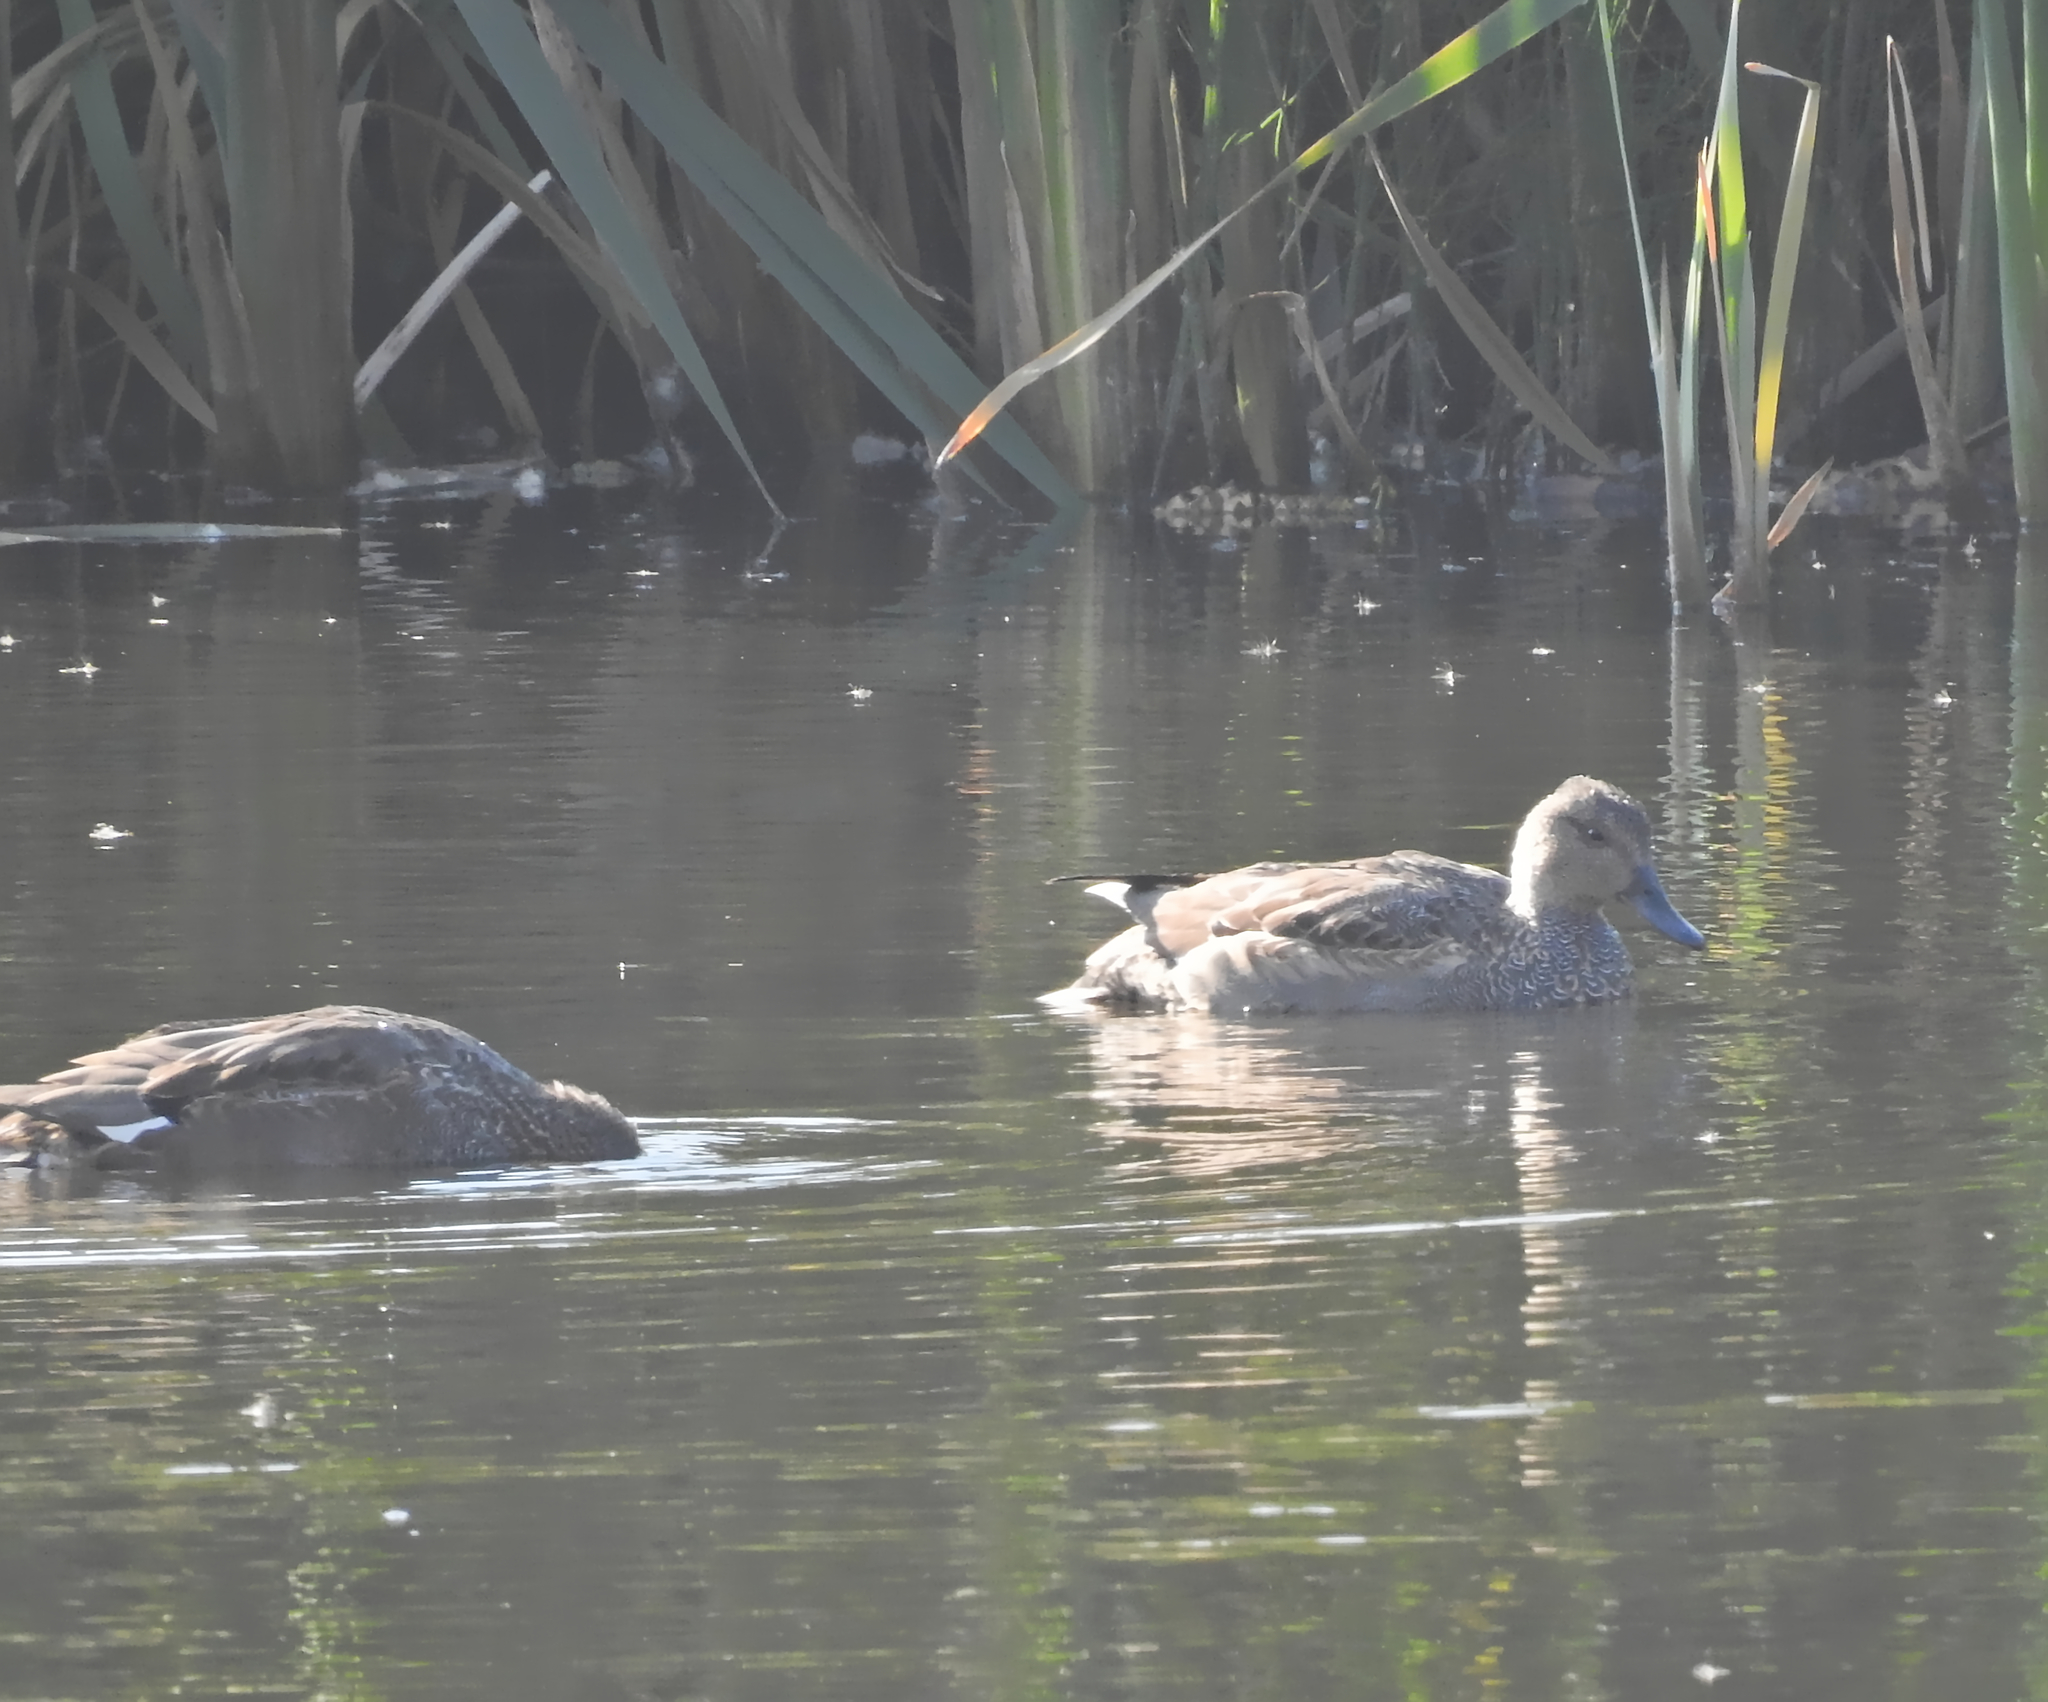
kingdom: Animalia
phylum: Chordata
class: Aves
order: Anseriformes
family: Anatidae
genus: Mareca
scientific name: Mareca strepera
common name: Gadwall
